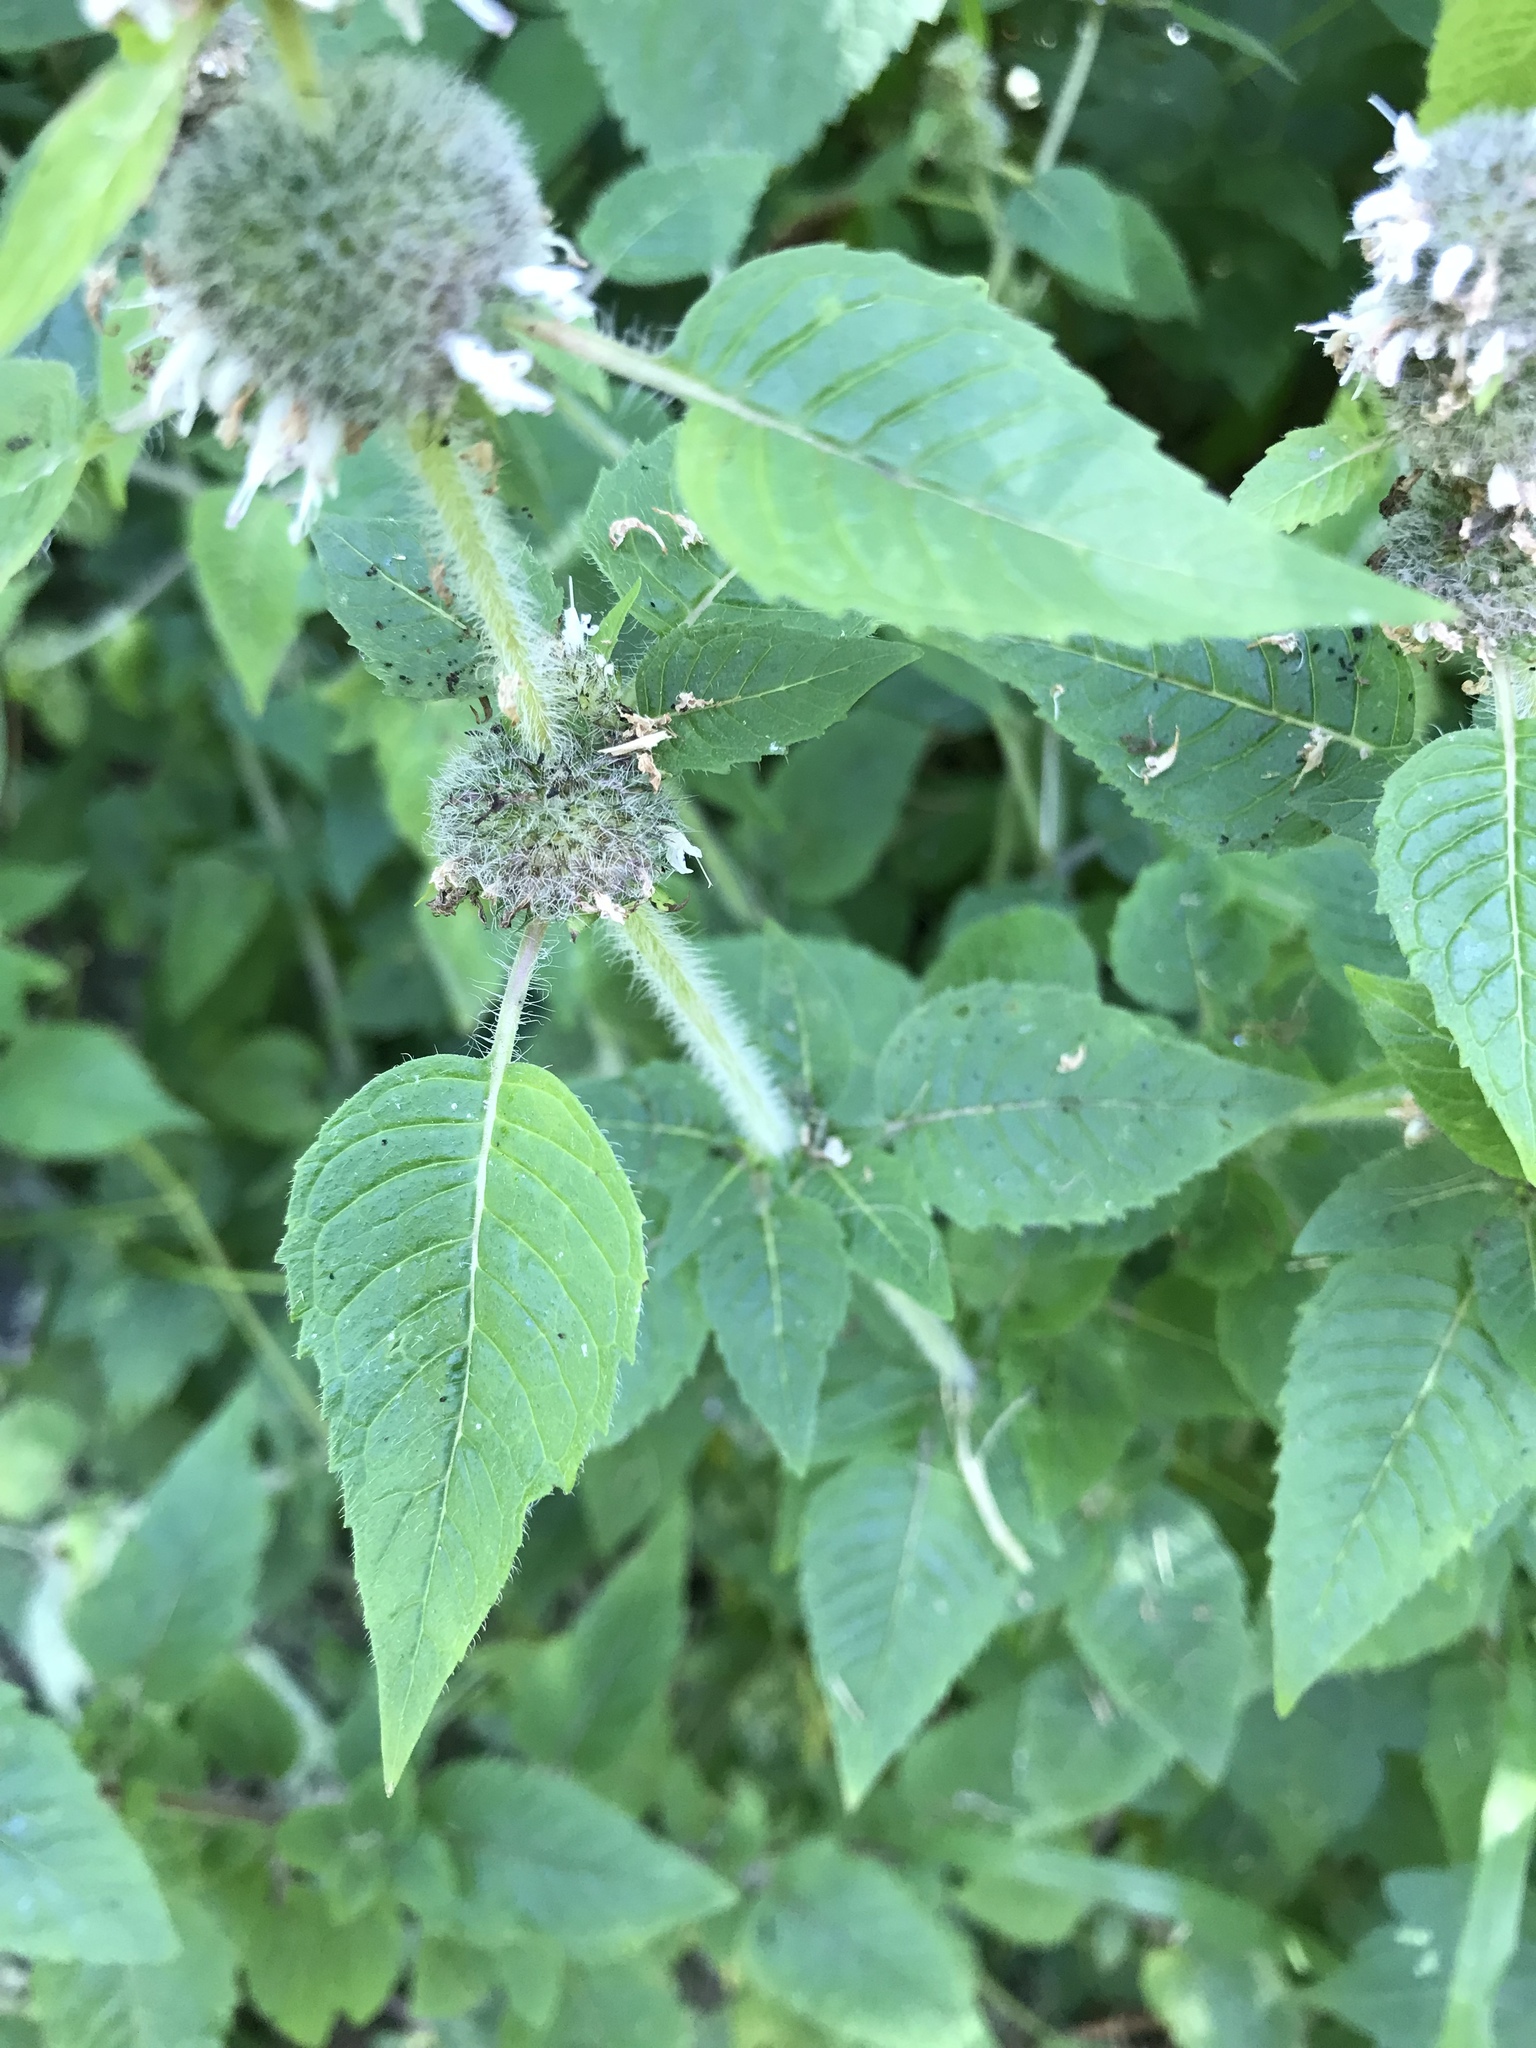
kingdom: Plantae
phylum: Tracheophyta
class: Magnoliopsida
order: Lamiales
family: Lamiaceae
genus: Blephilia
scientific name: Blephilia hirsuta
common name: Hairy blephilia
